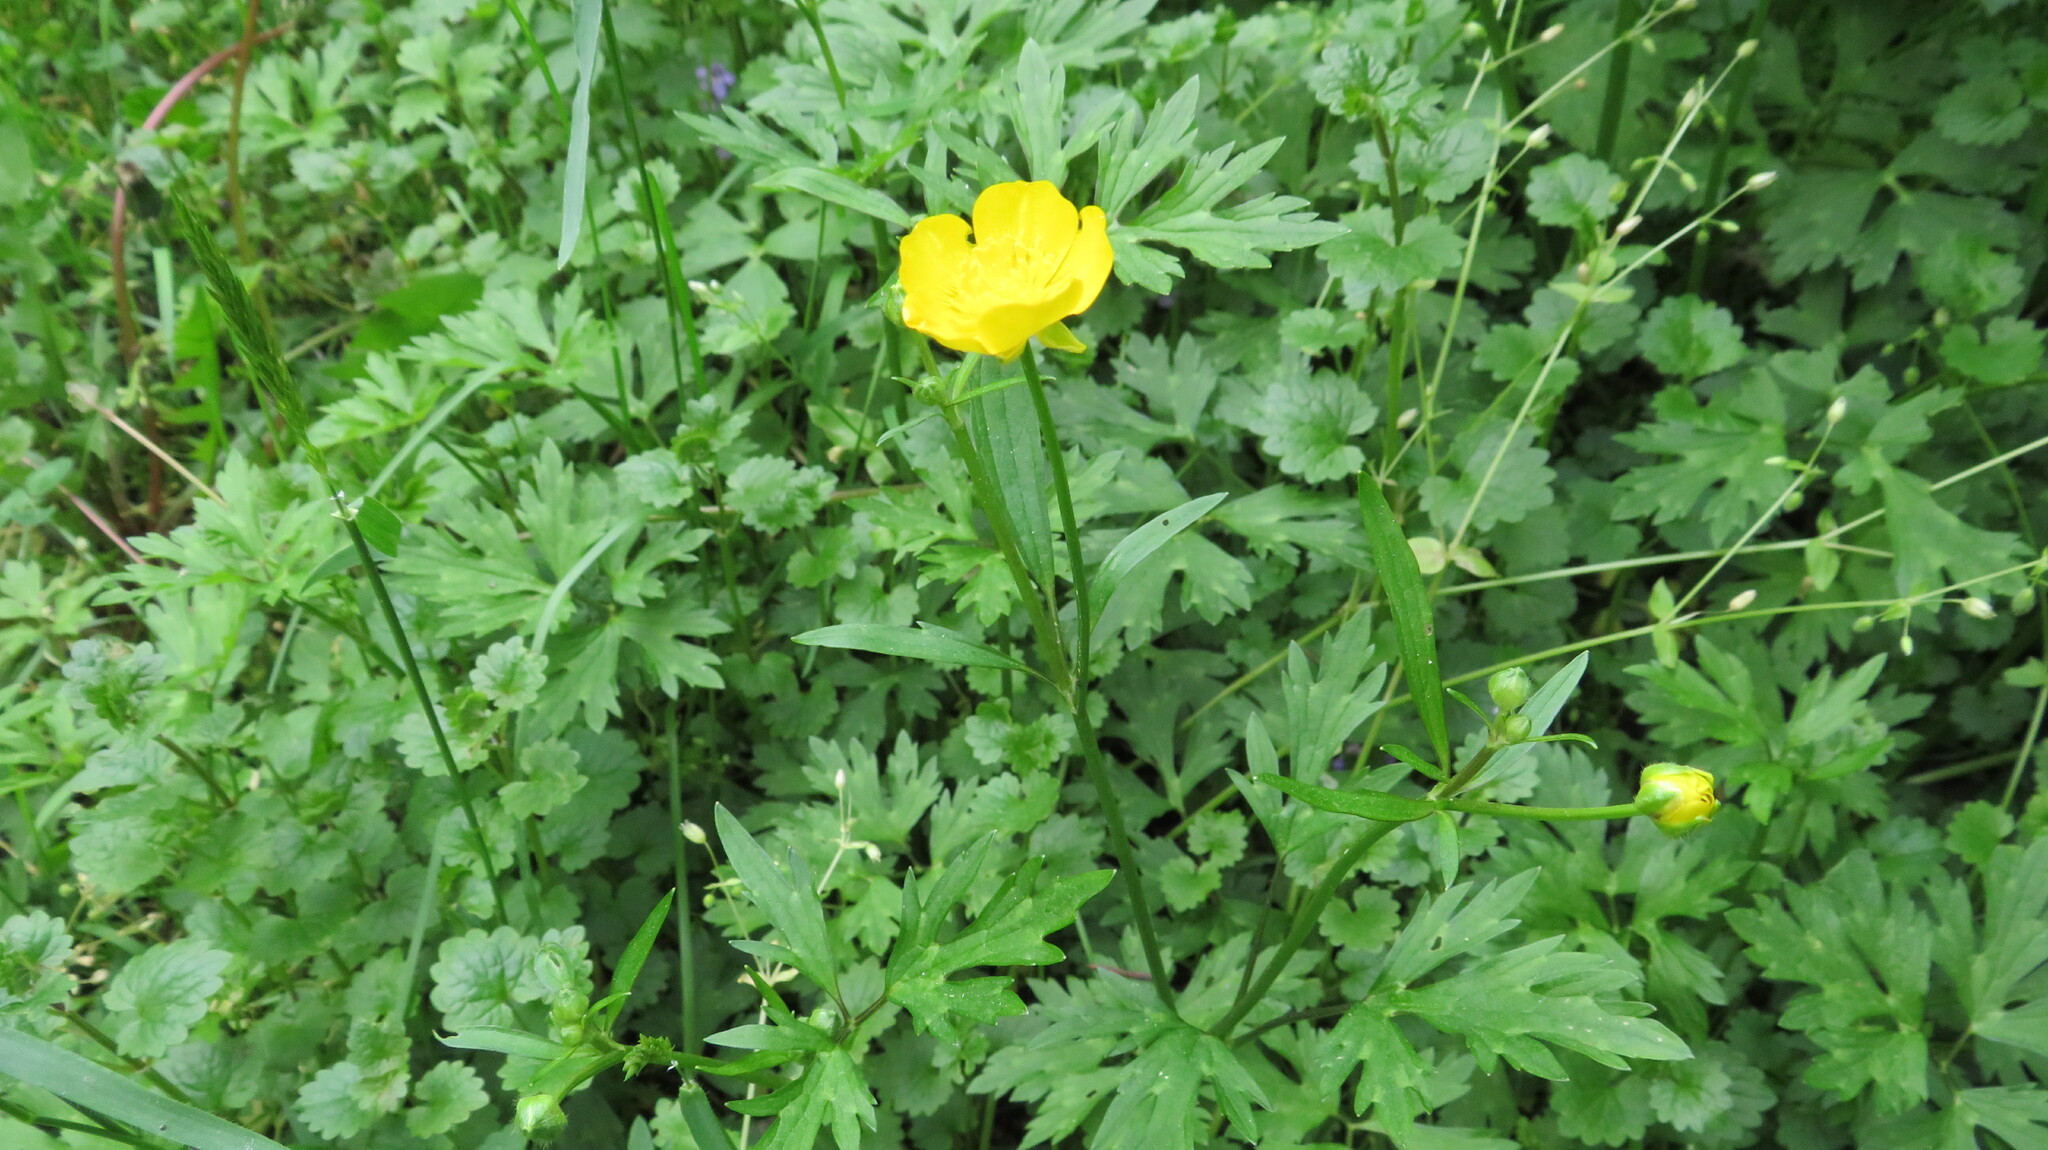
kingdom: Plantae
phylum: Tracheophyta
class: Magnoliopsida
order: Ranunculales
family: Ranunculaceae
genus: Ranunculus
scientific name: Ranunculus repens
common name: Creeping buttercup
